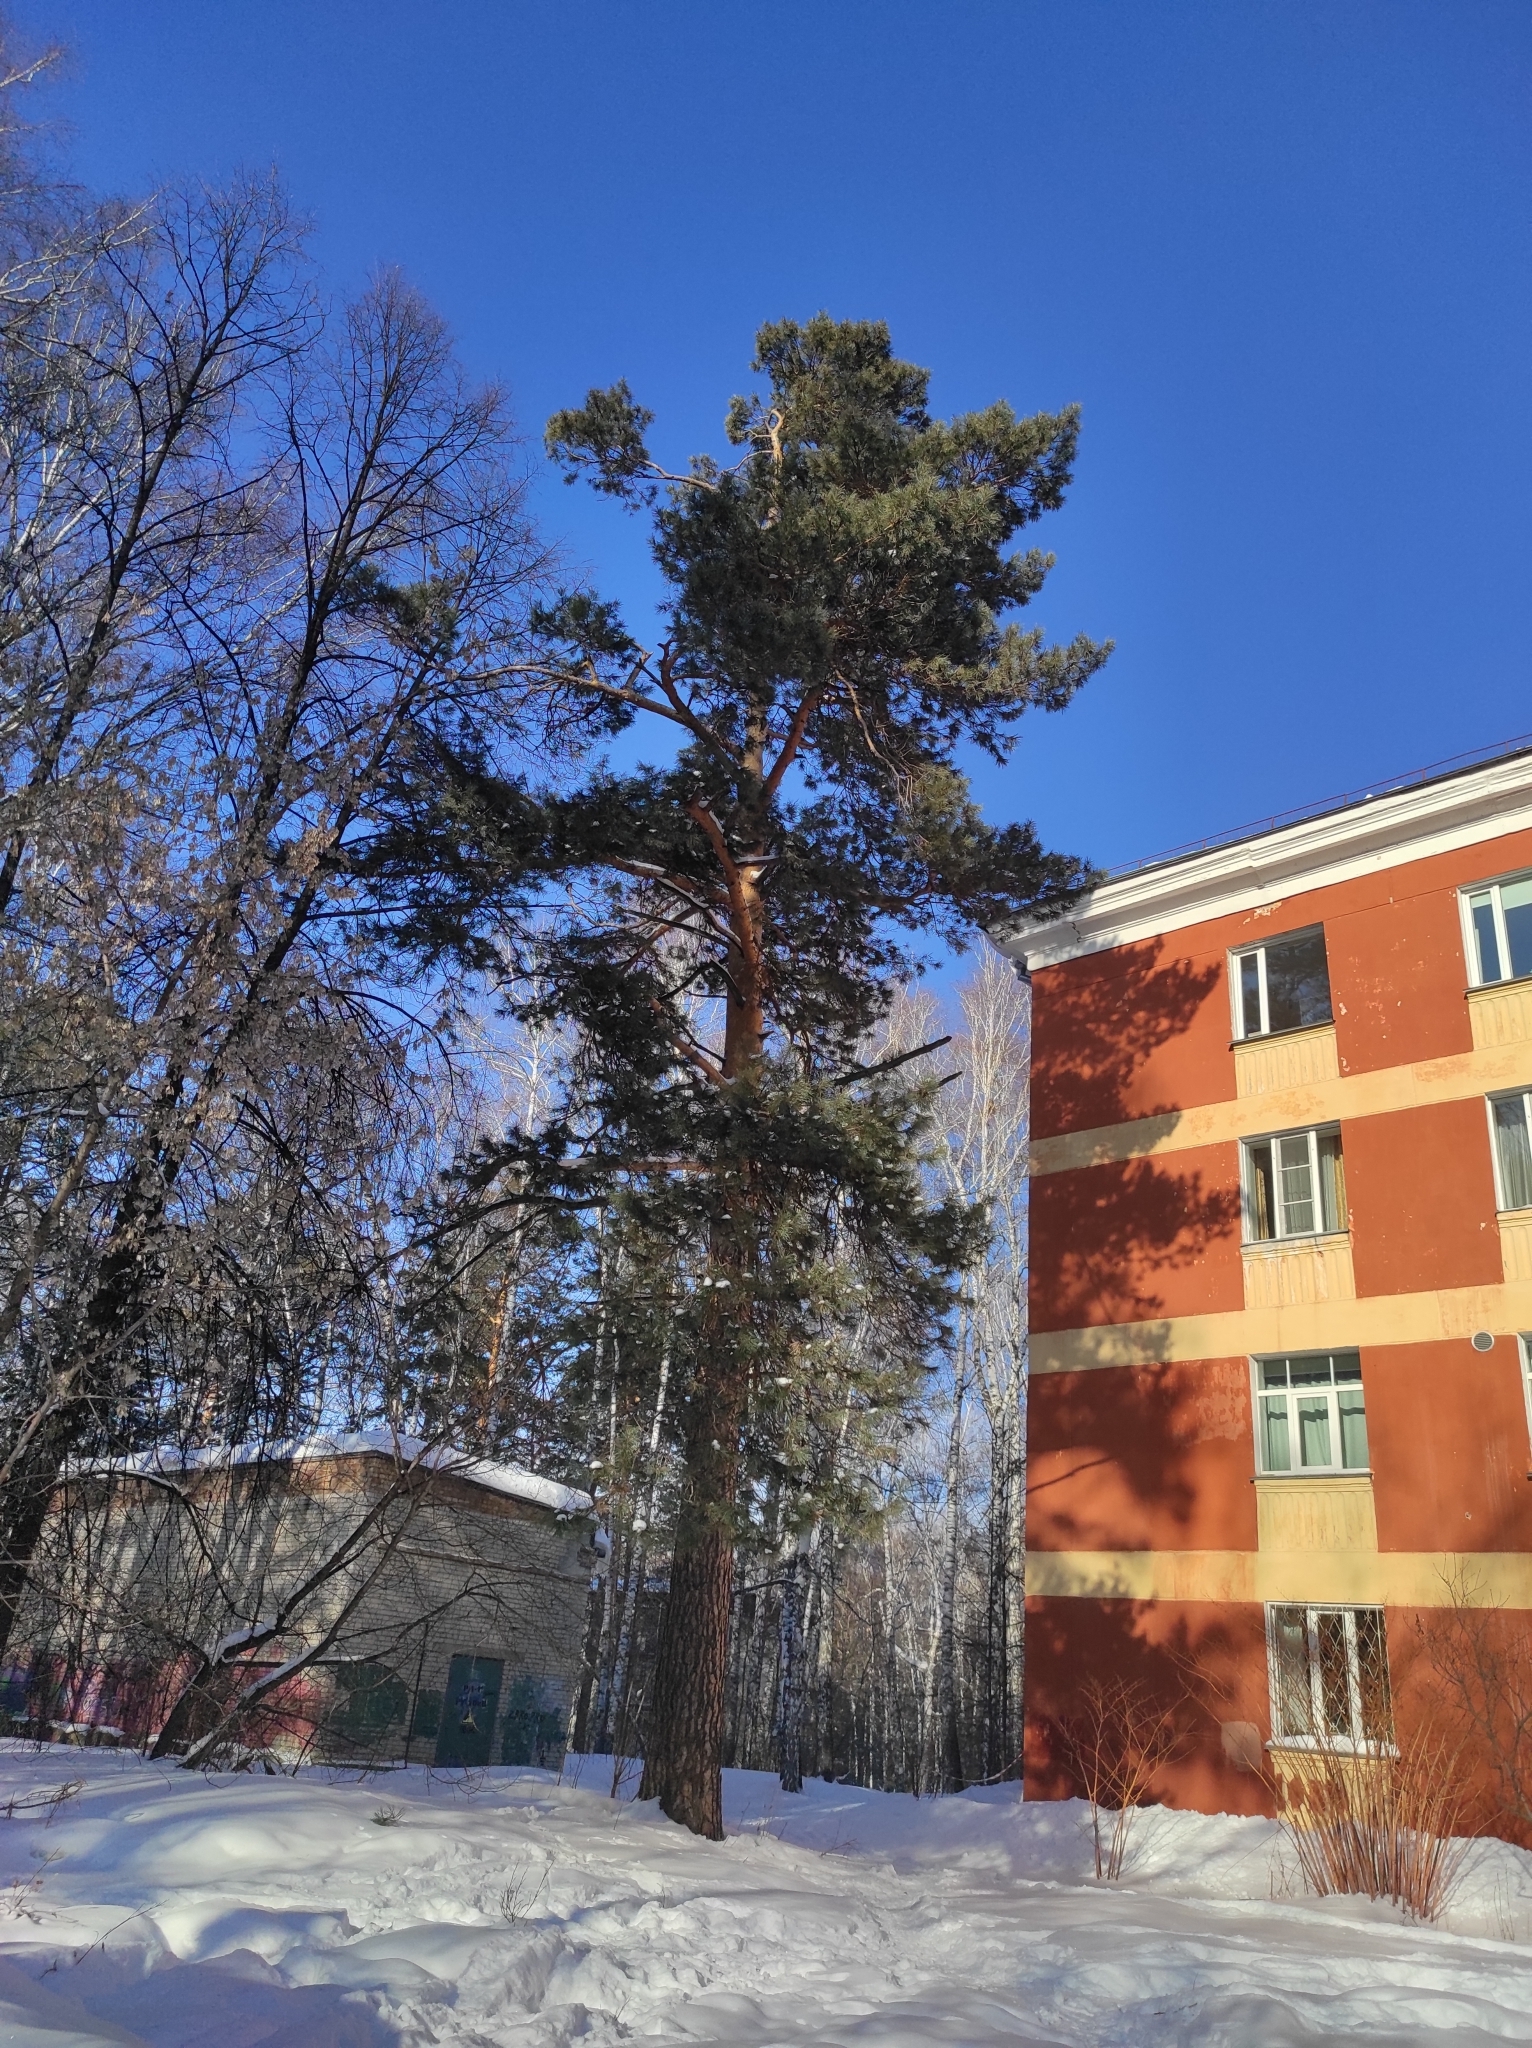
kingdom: Plantae
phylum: Tracheophyta
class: Pinopsida
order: Pinales
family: Pinaceae
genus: Pinus
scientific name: Pinus sylvestris
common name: Scots pine
